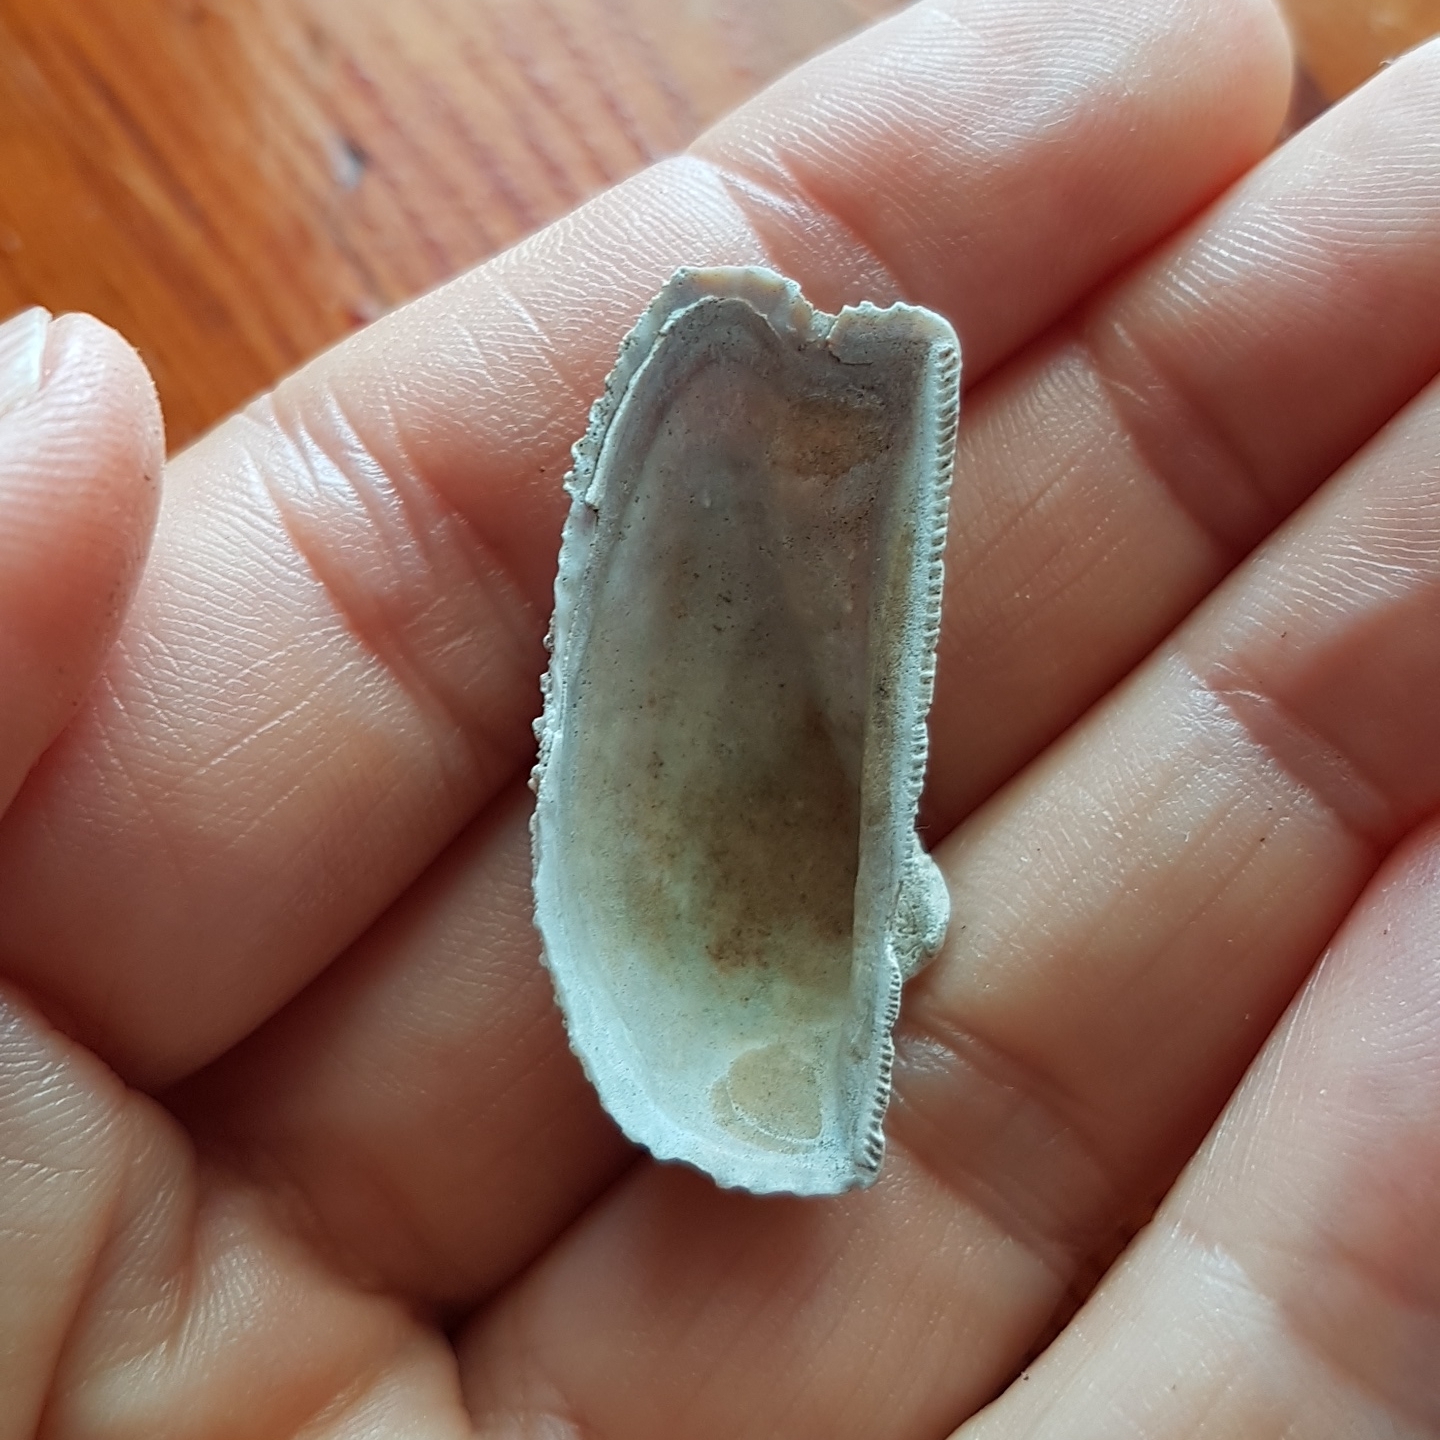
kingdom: Animalia
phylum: Mollusca
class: Bivalvia
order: Arcida
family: Arcidae
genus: Arca
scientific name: Arca noae
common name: Noah's arch
